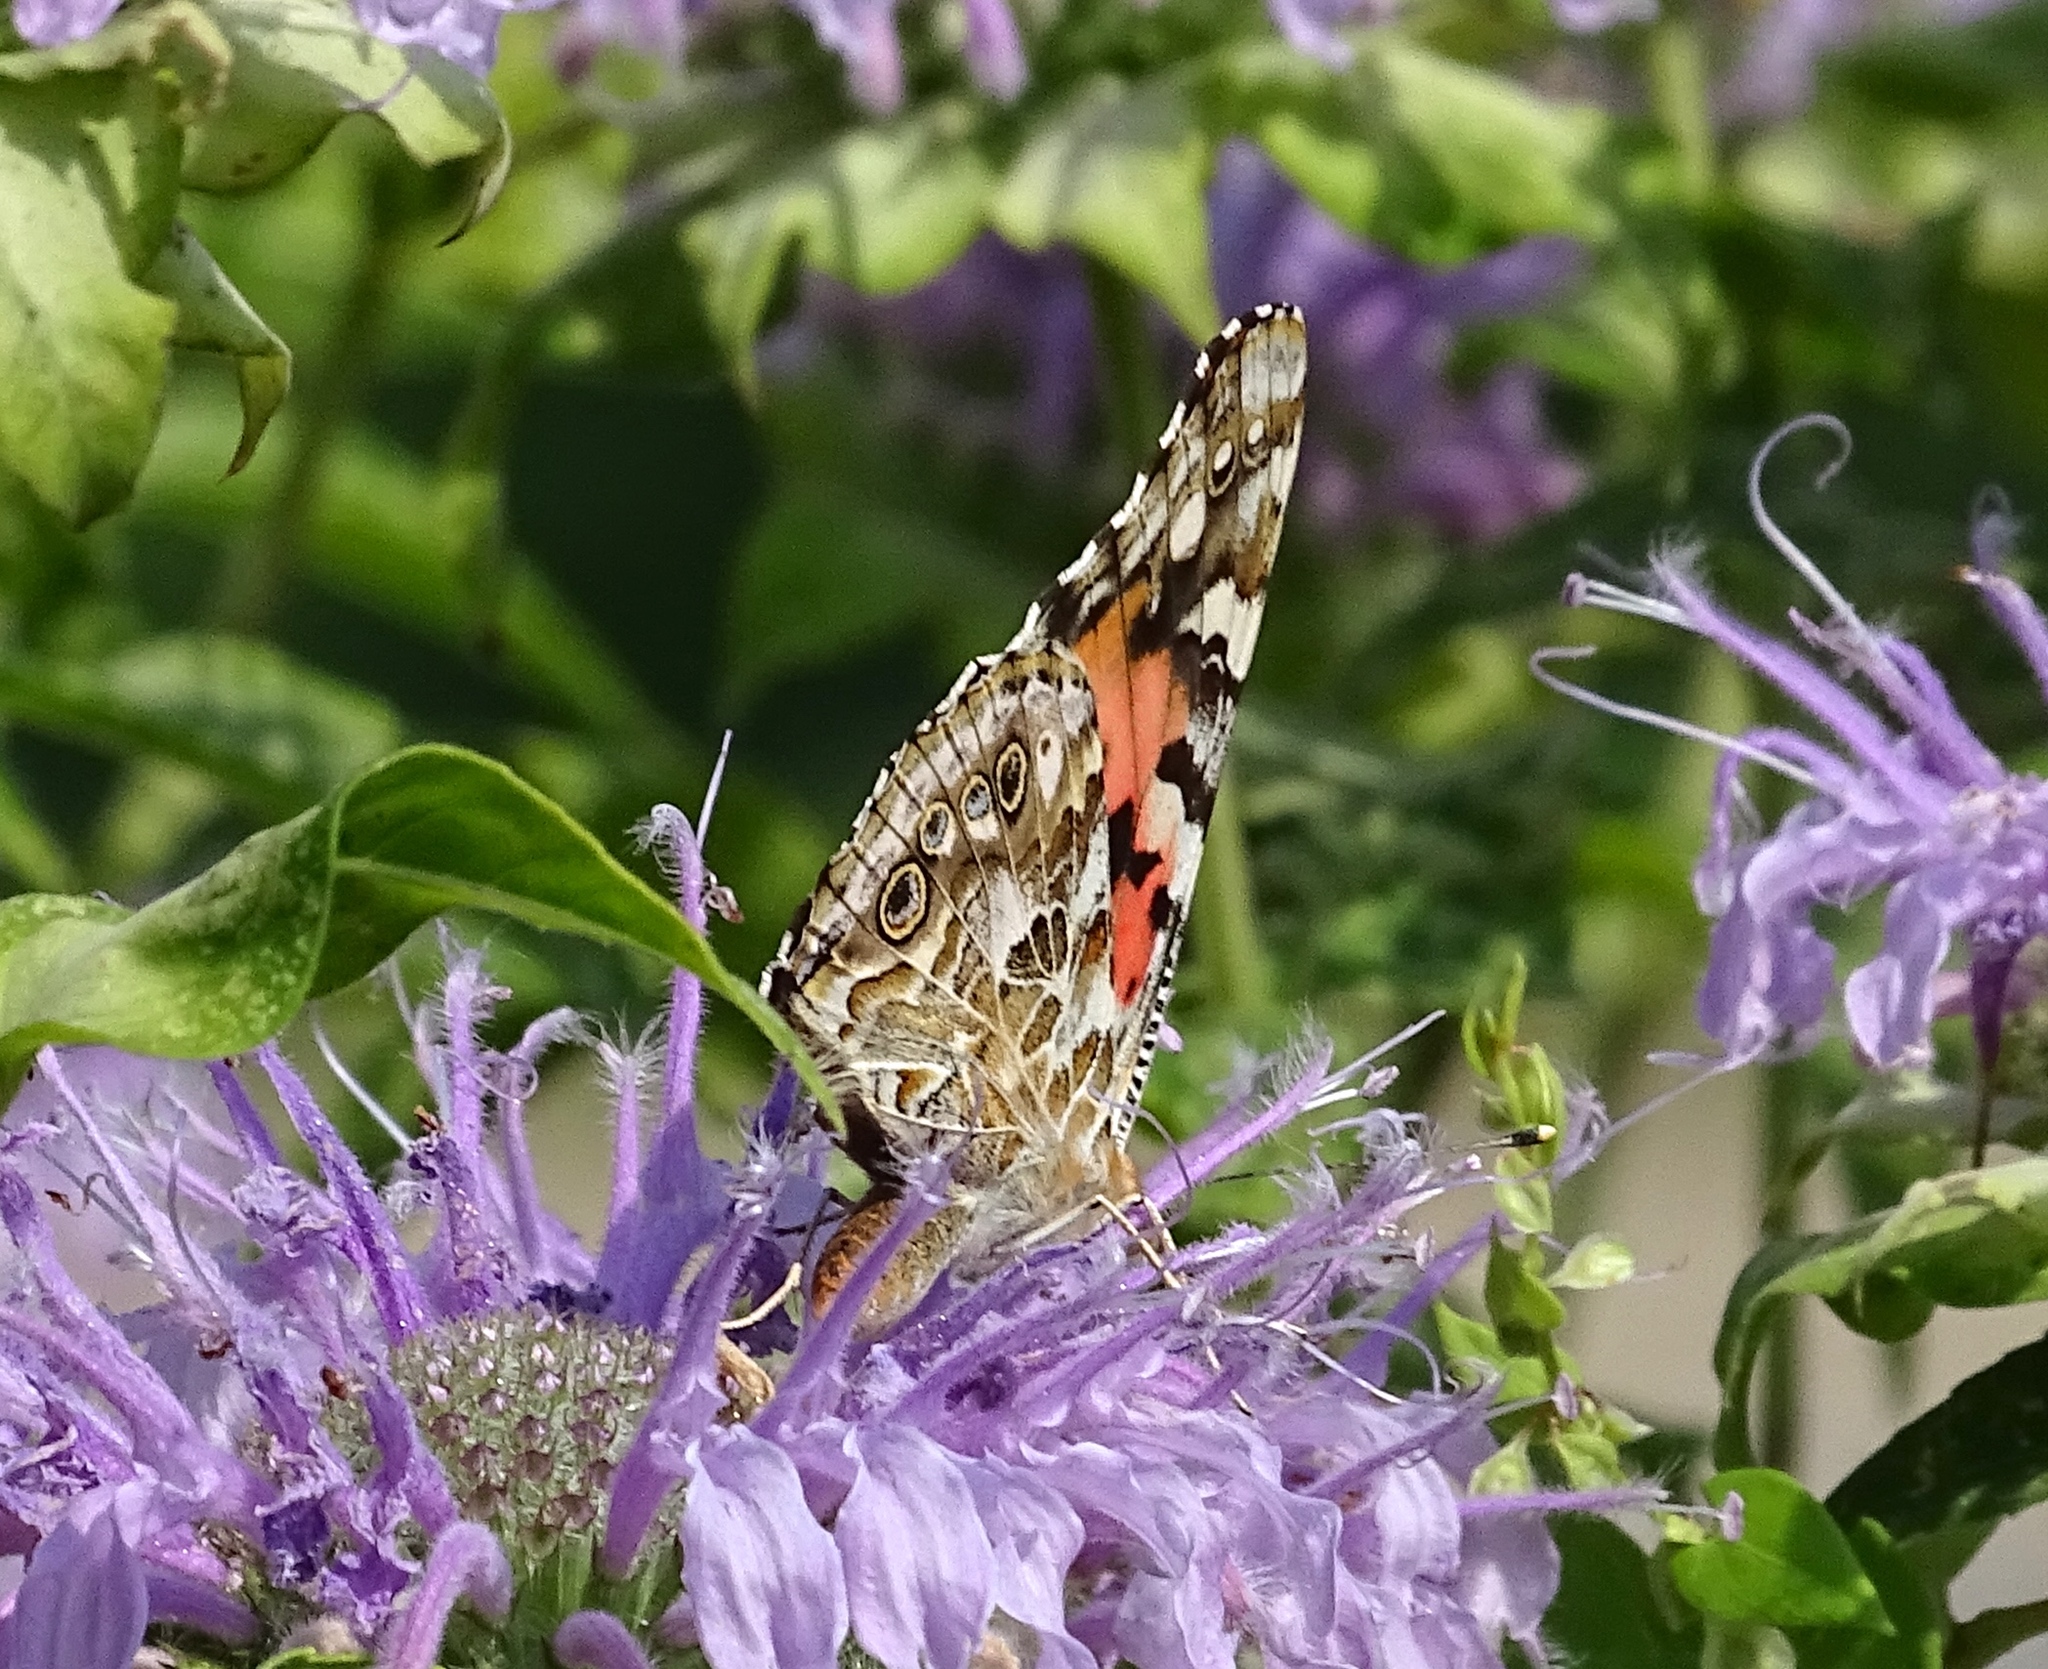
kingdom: Animalia
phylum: Arthropoda
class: Insecta
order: Lepidoptera
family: Nymphalidae
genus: Vanessa
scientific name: Vanessa cardui
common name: Painted lady
